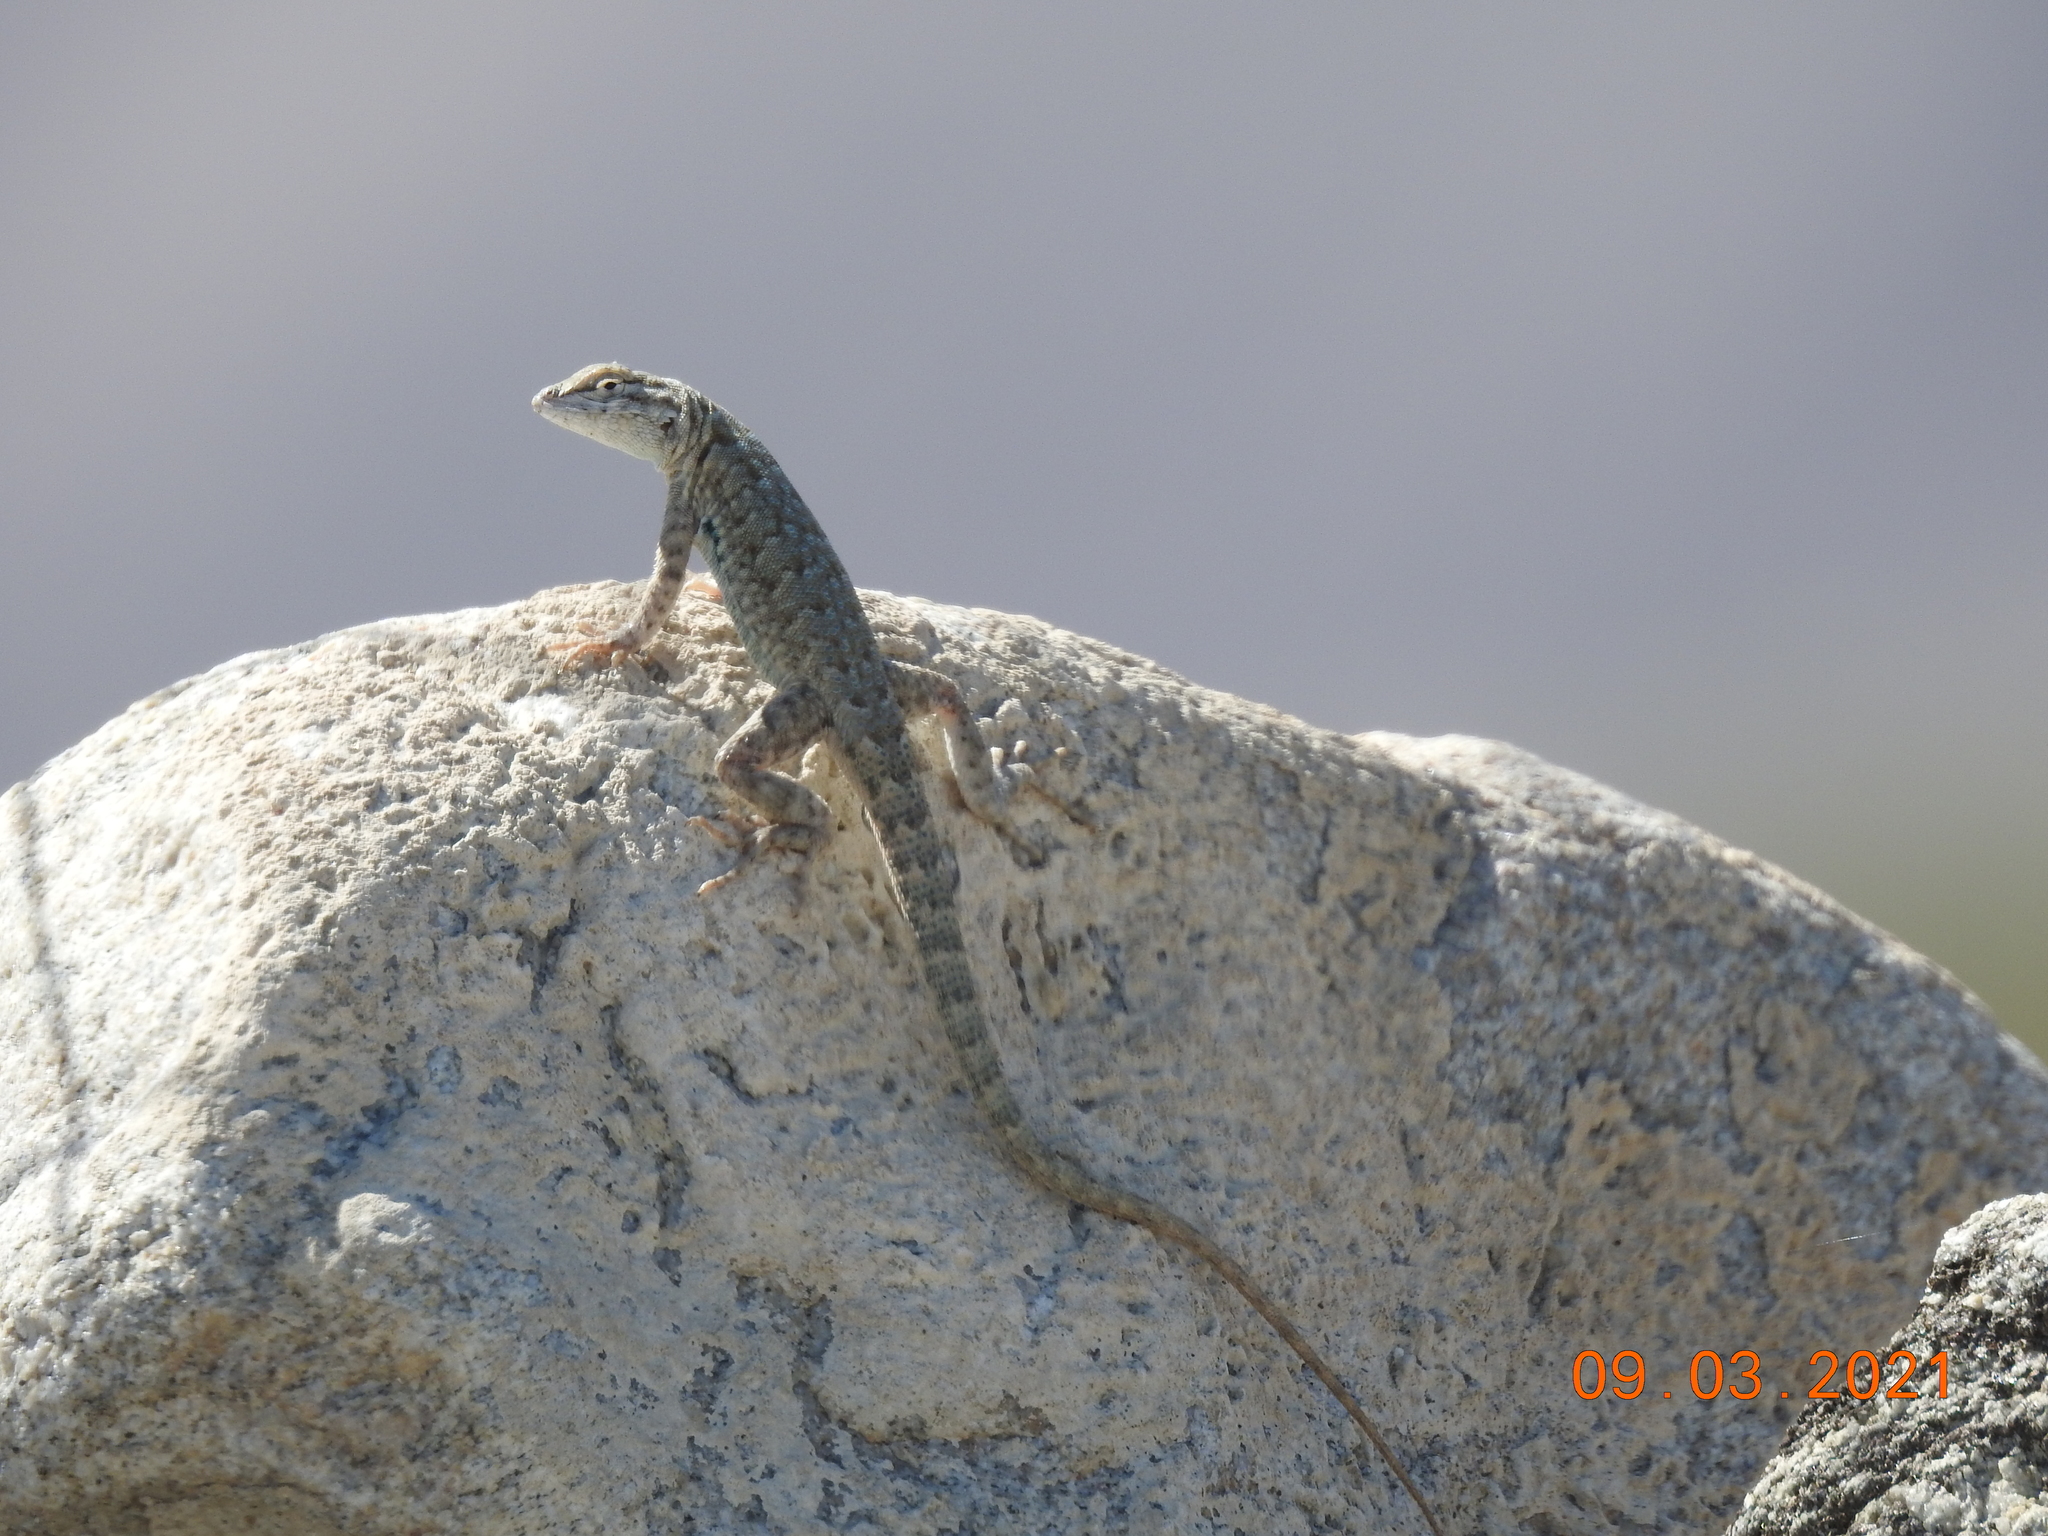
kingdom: Animalia
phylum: Chordata
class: Squamata
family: Phrynosomatidae
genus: Uta
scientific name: Uta stansburiana
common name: Side-blotched lizard
